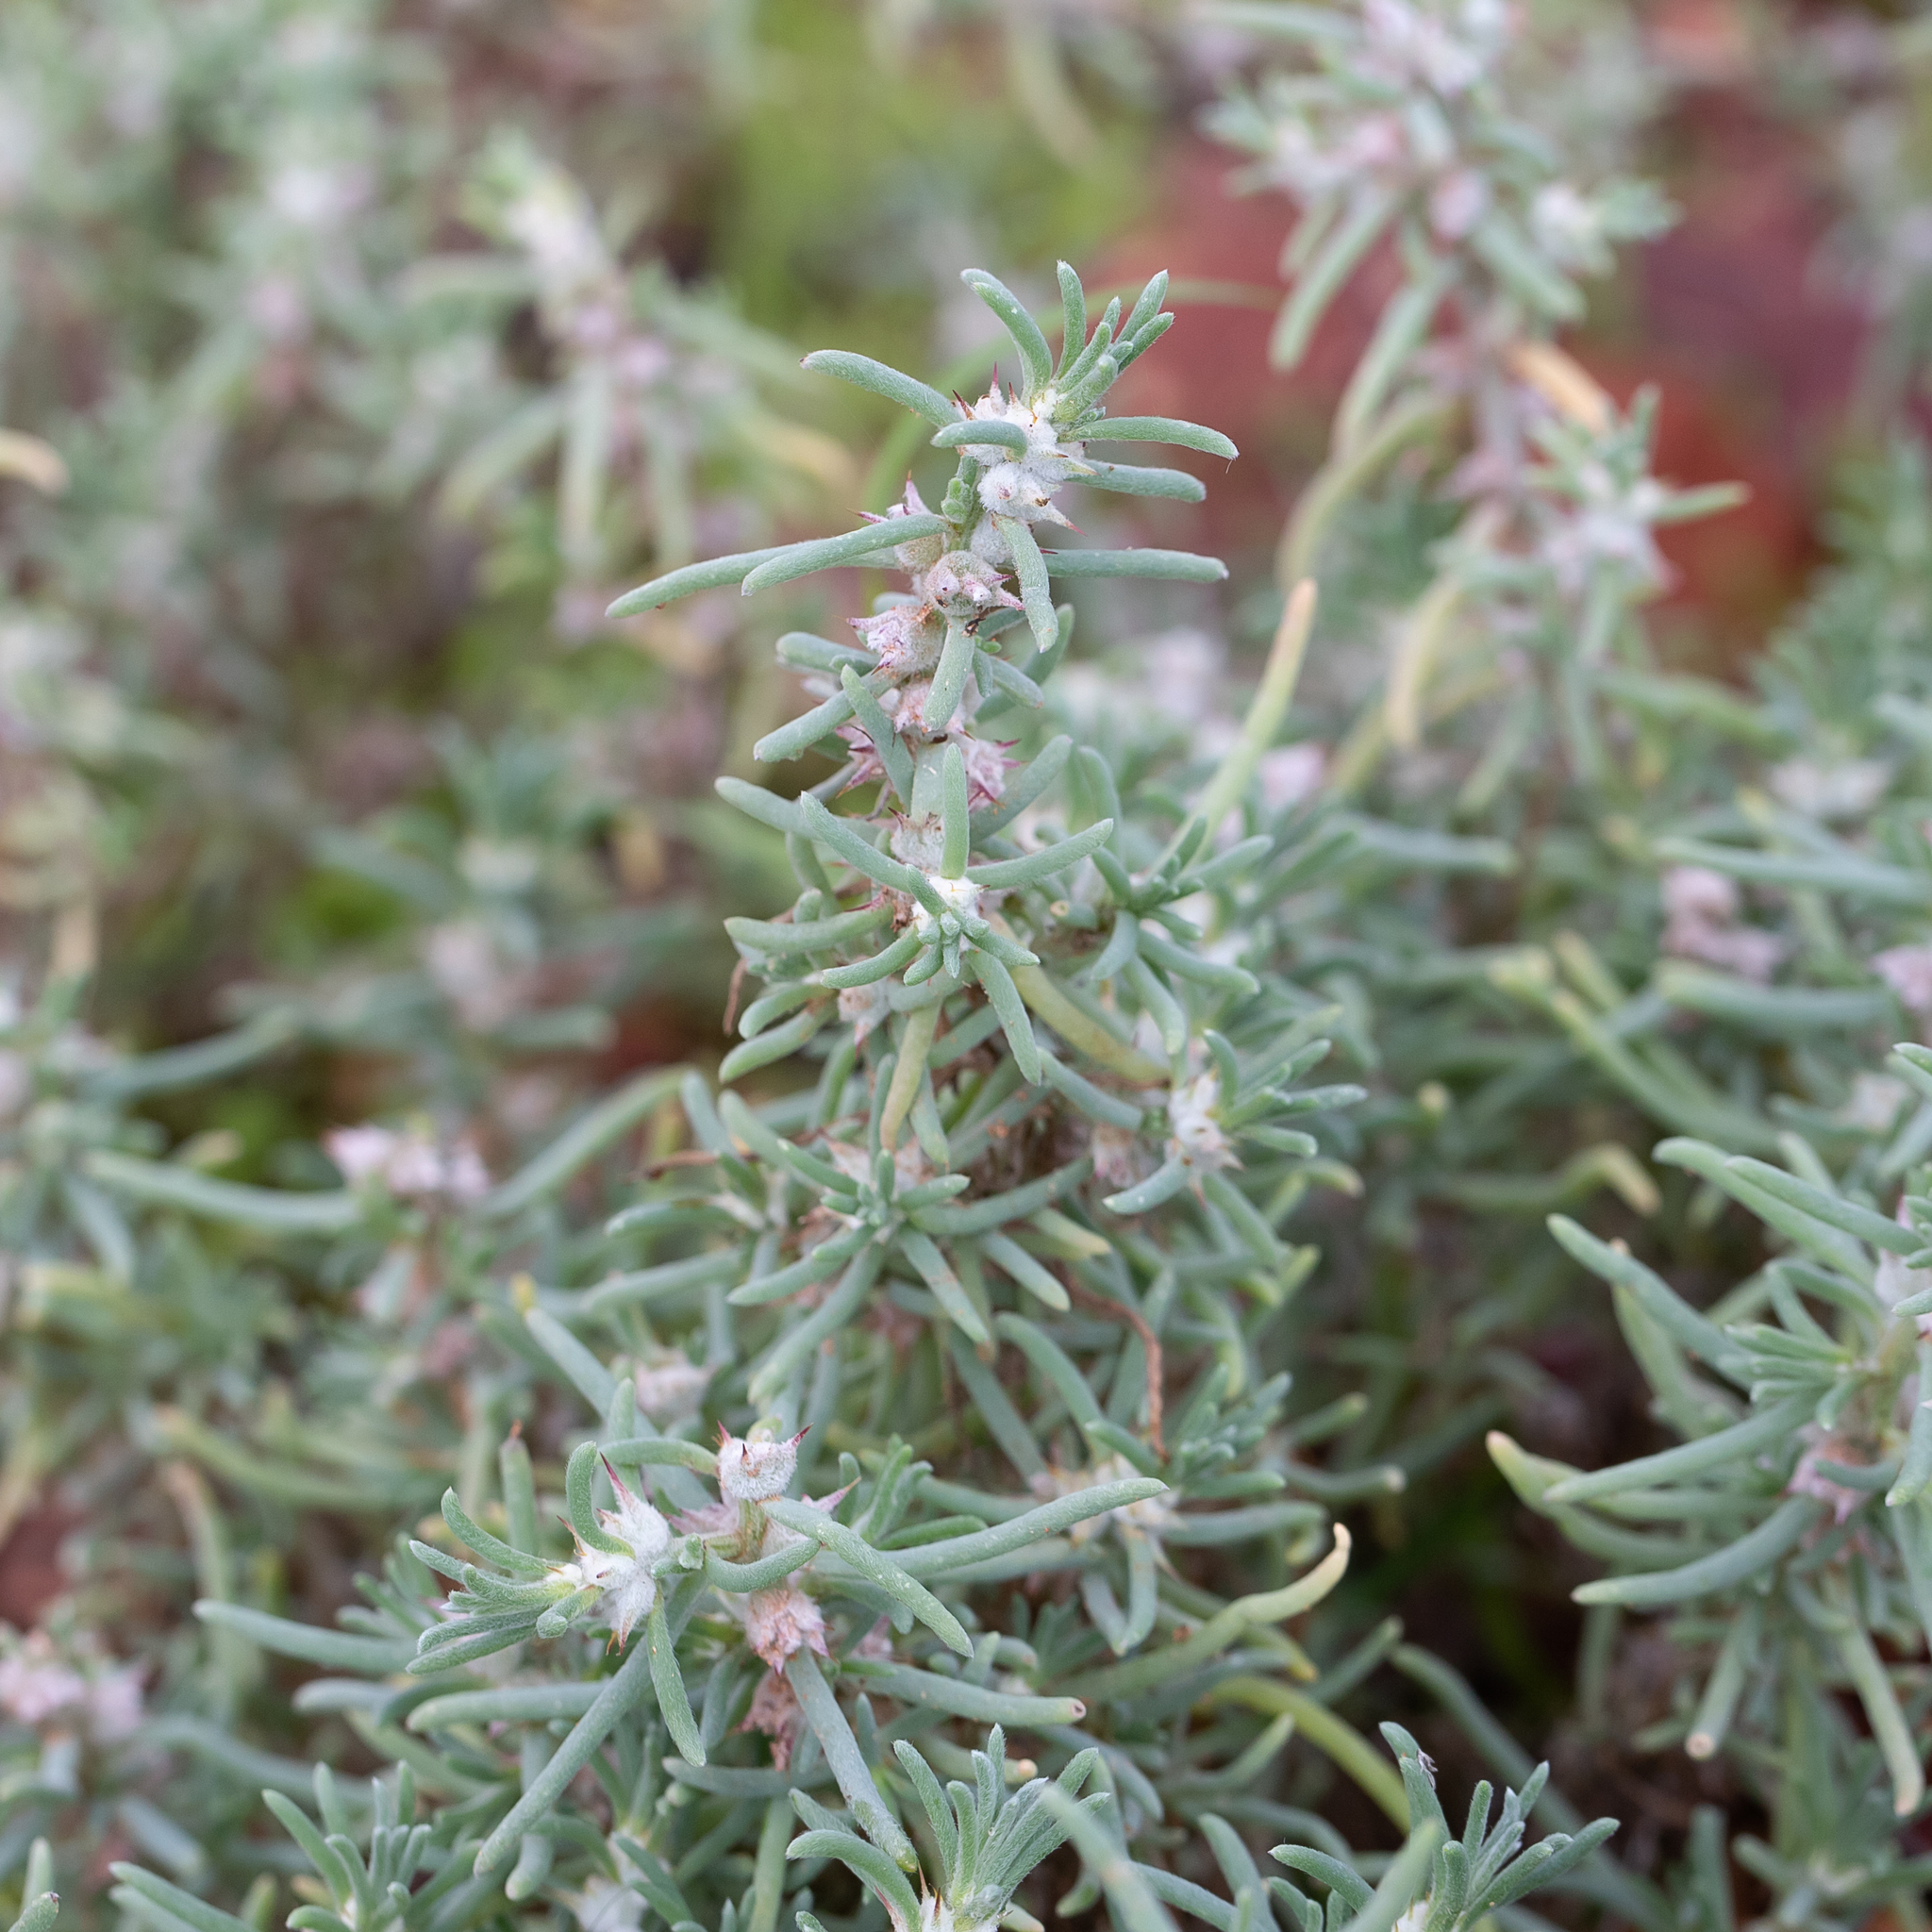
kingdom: Plantae
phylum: Tracheophyta
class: Magnoliopsida
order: Caryophyllales
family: Amaranthaceae
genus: Sclerolaena
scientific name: Sclerolaena bicornis
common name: Goatheadbur
